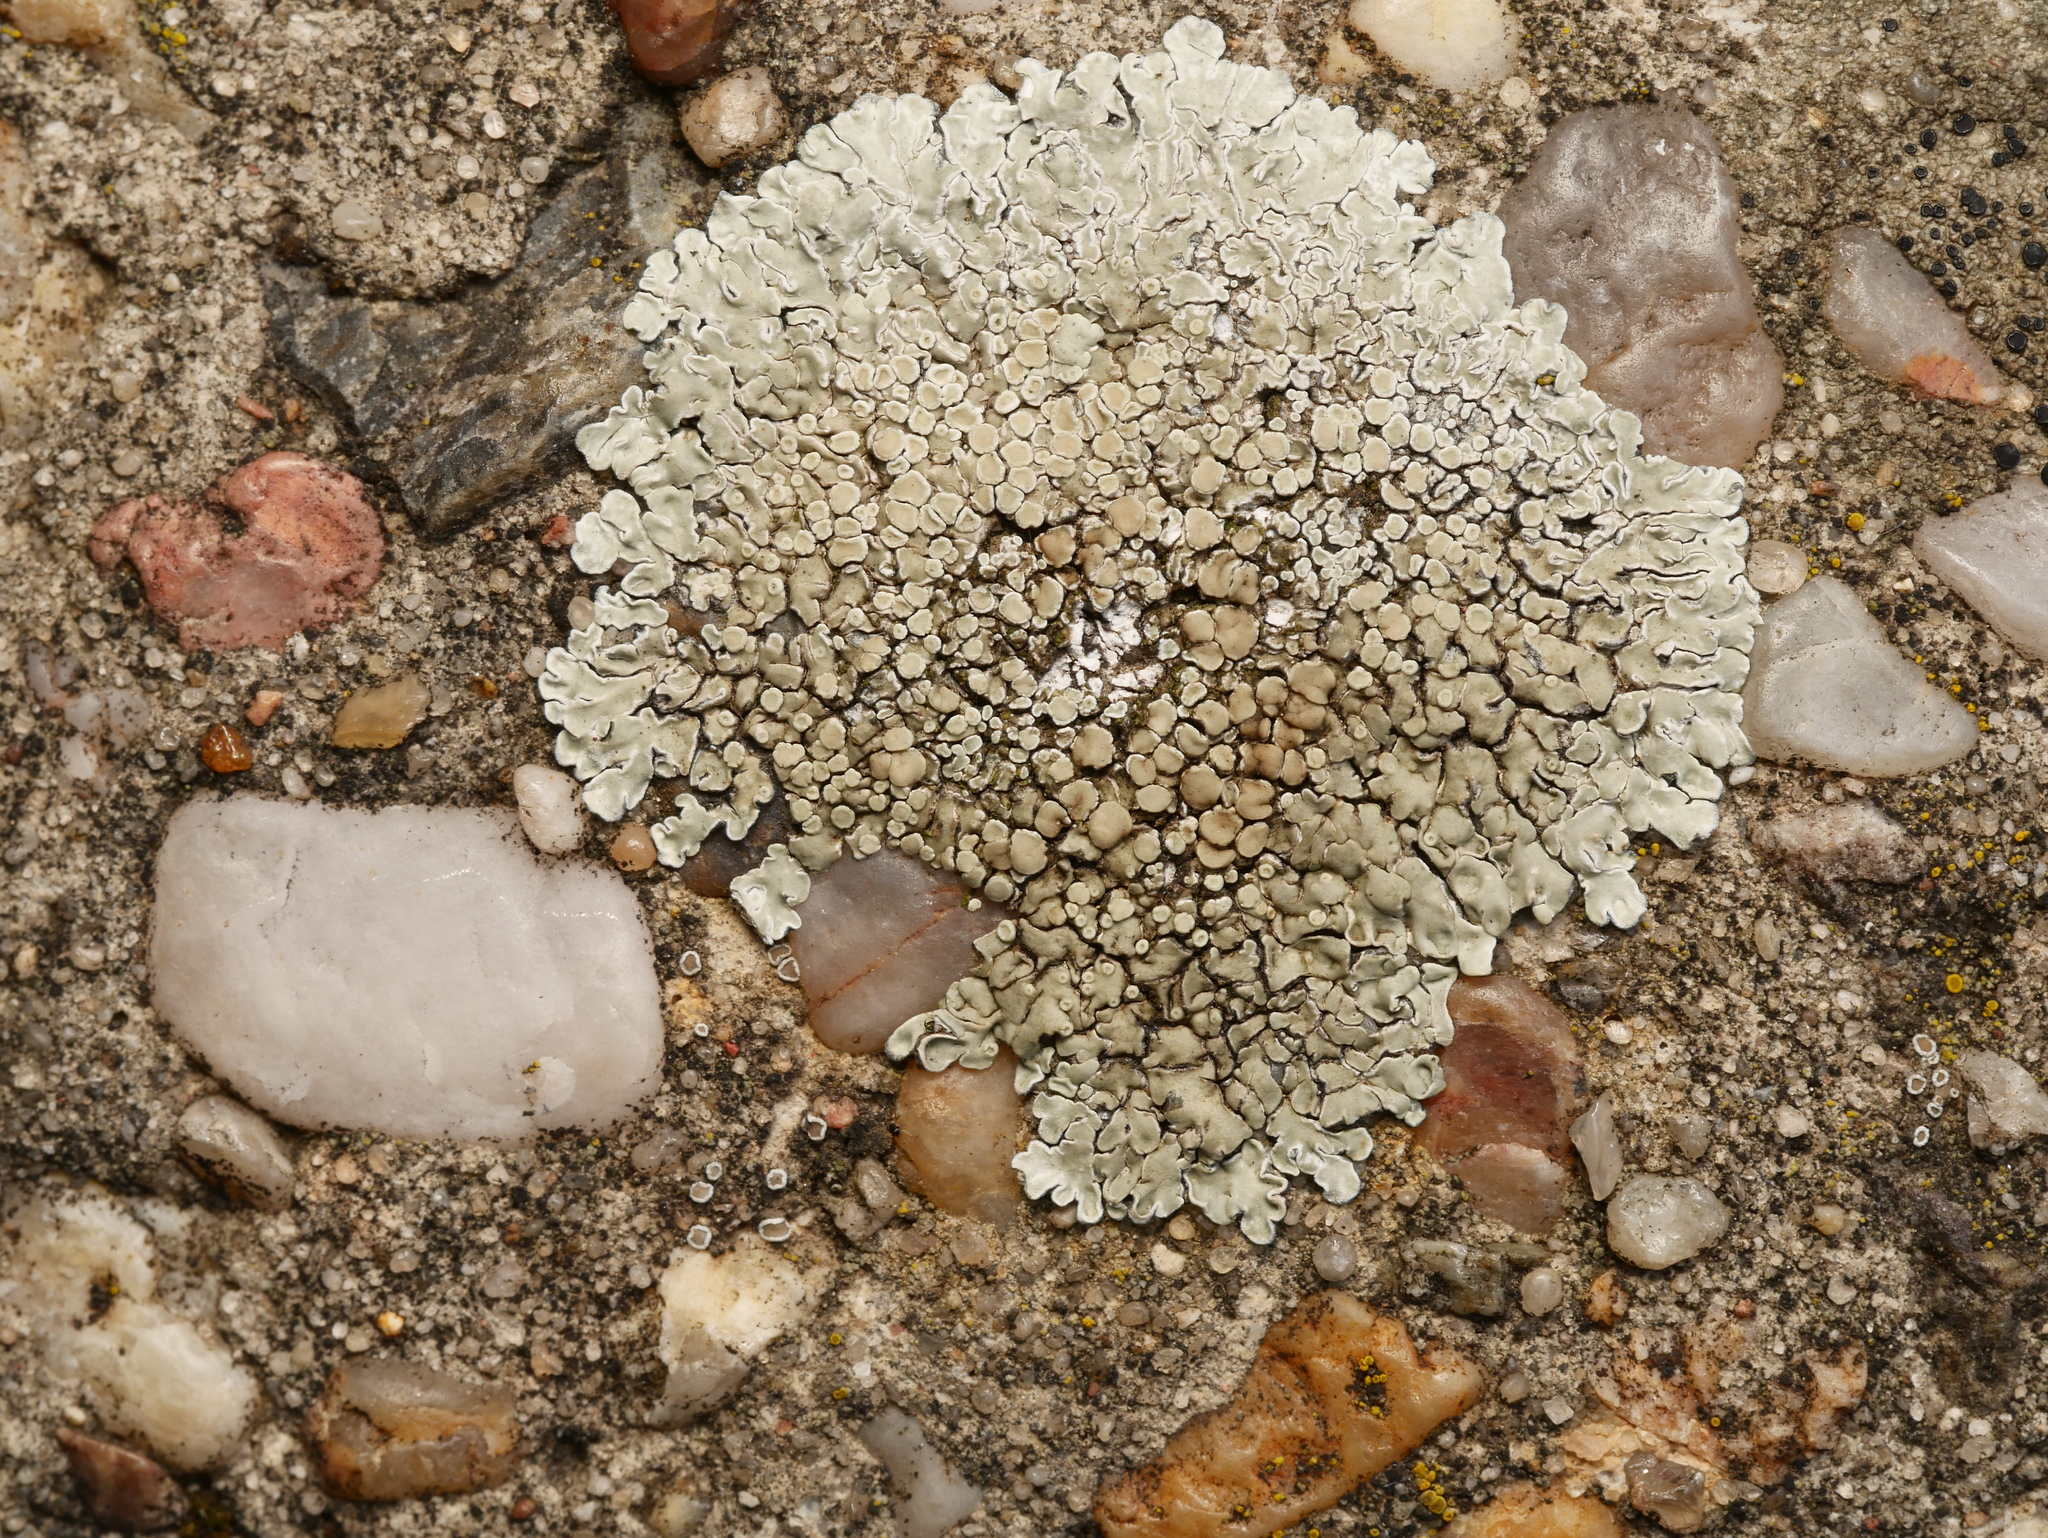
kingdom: Fungi
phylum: Ascomycota
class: Lecanoromycetes
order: Lecanorales
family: Lecanoraceae
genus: Protoparmeliopsis
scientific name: Protoparmeliopsis muralis
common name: Stonewall rim lichen
